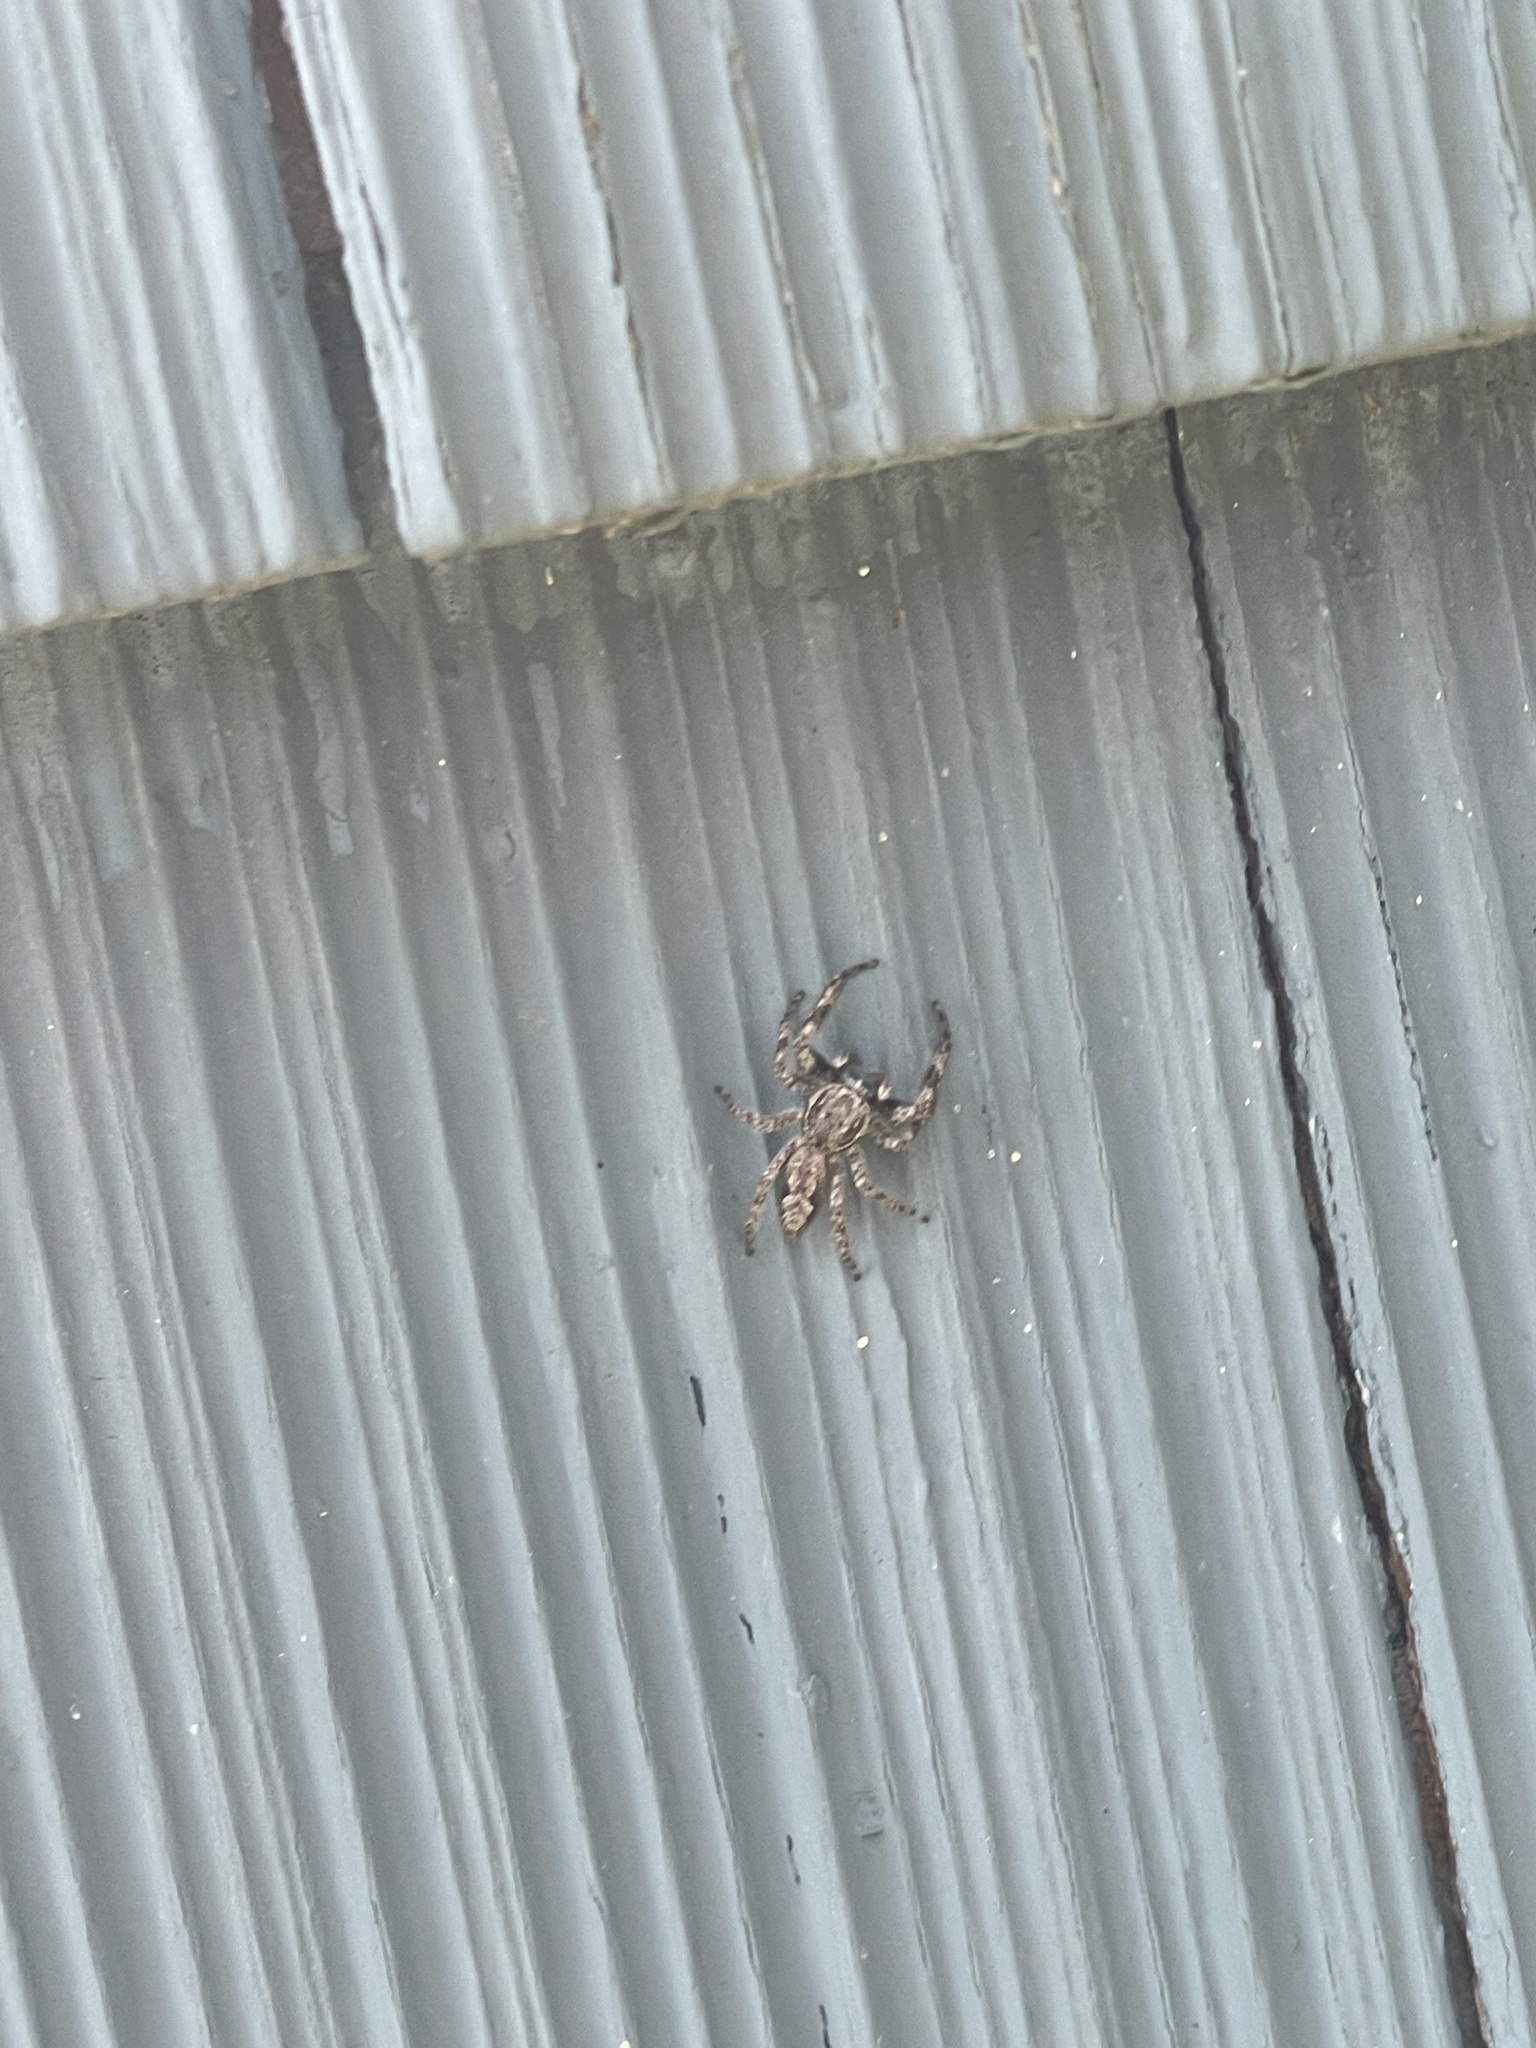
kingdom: Animalia
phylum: Arthropoda
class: Arachnida
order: Araneae
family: Salticidae
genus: Platycryptus
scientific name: Platycryptus undatus
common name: Tan jumping spider
